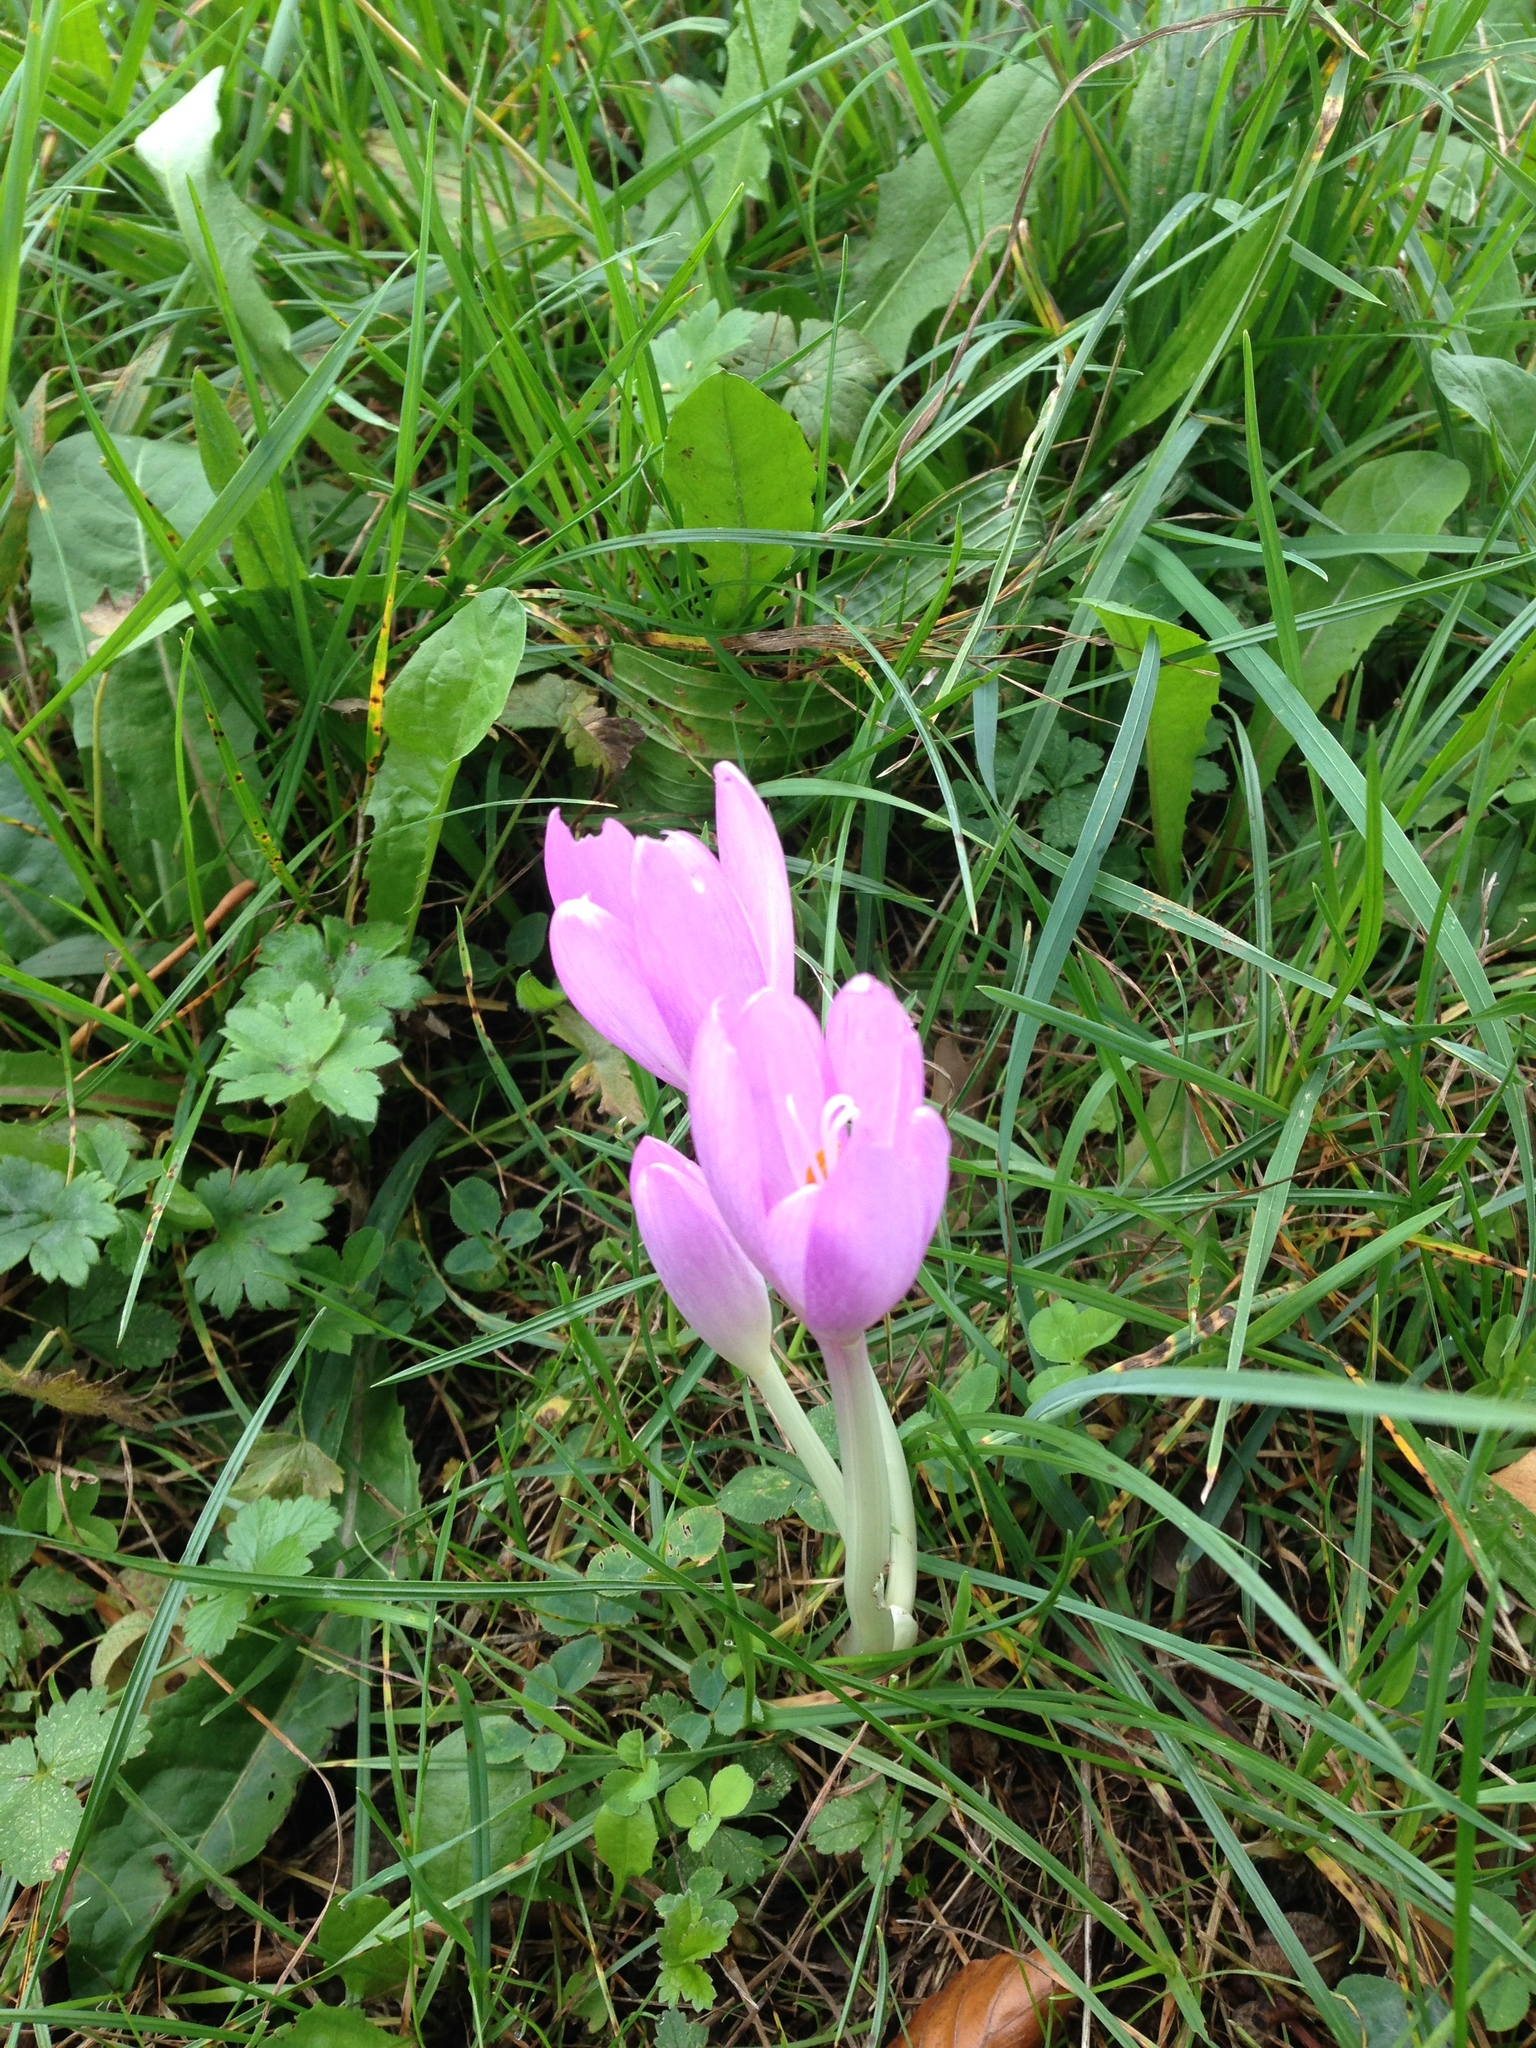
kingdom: Plantae
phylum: Tracheophyta
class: Liliopsida
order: Liliales
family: Colchicaceae
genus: Colchicum
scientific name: Colchicum autumnale
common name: Autumn crocus
